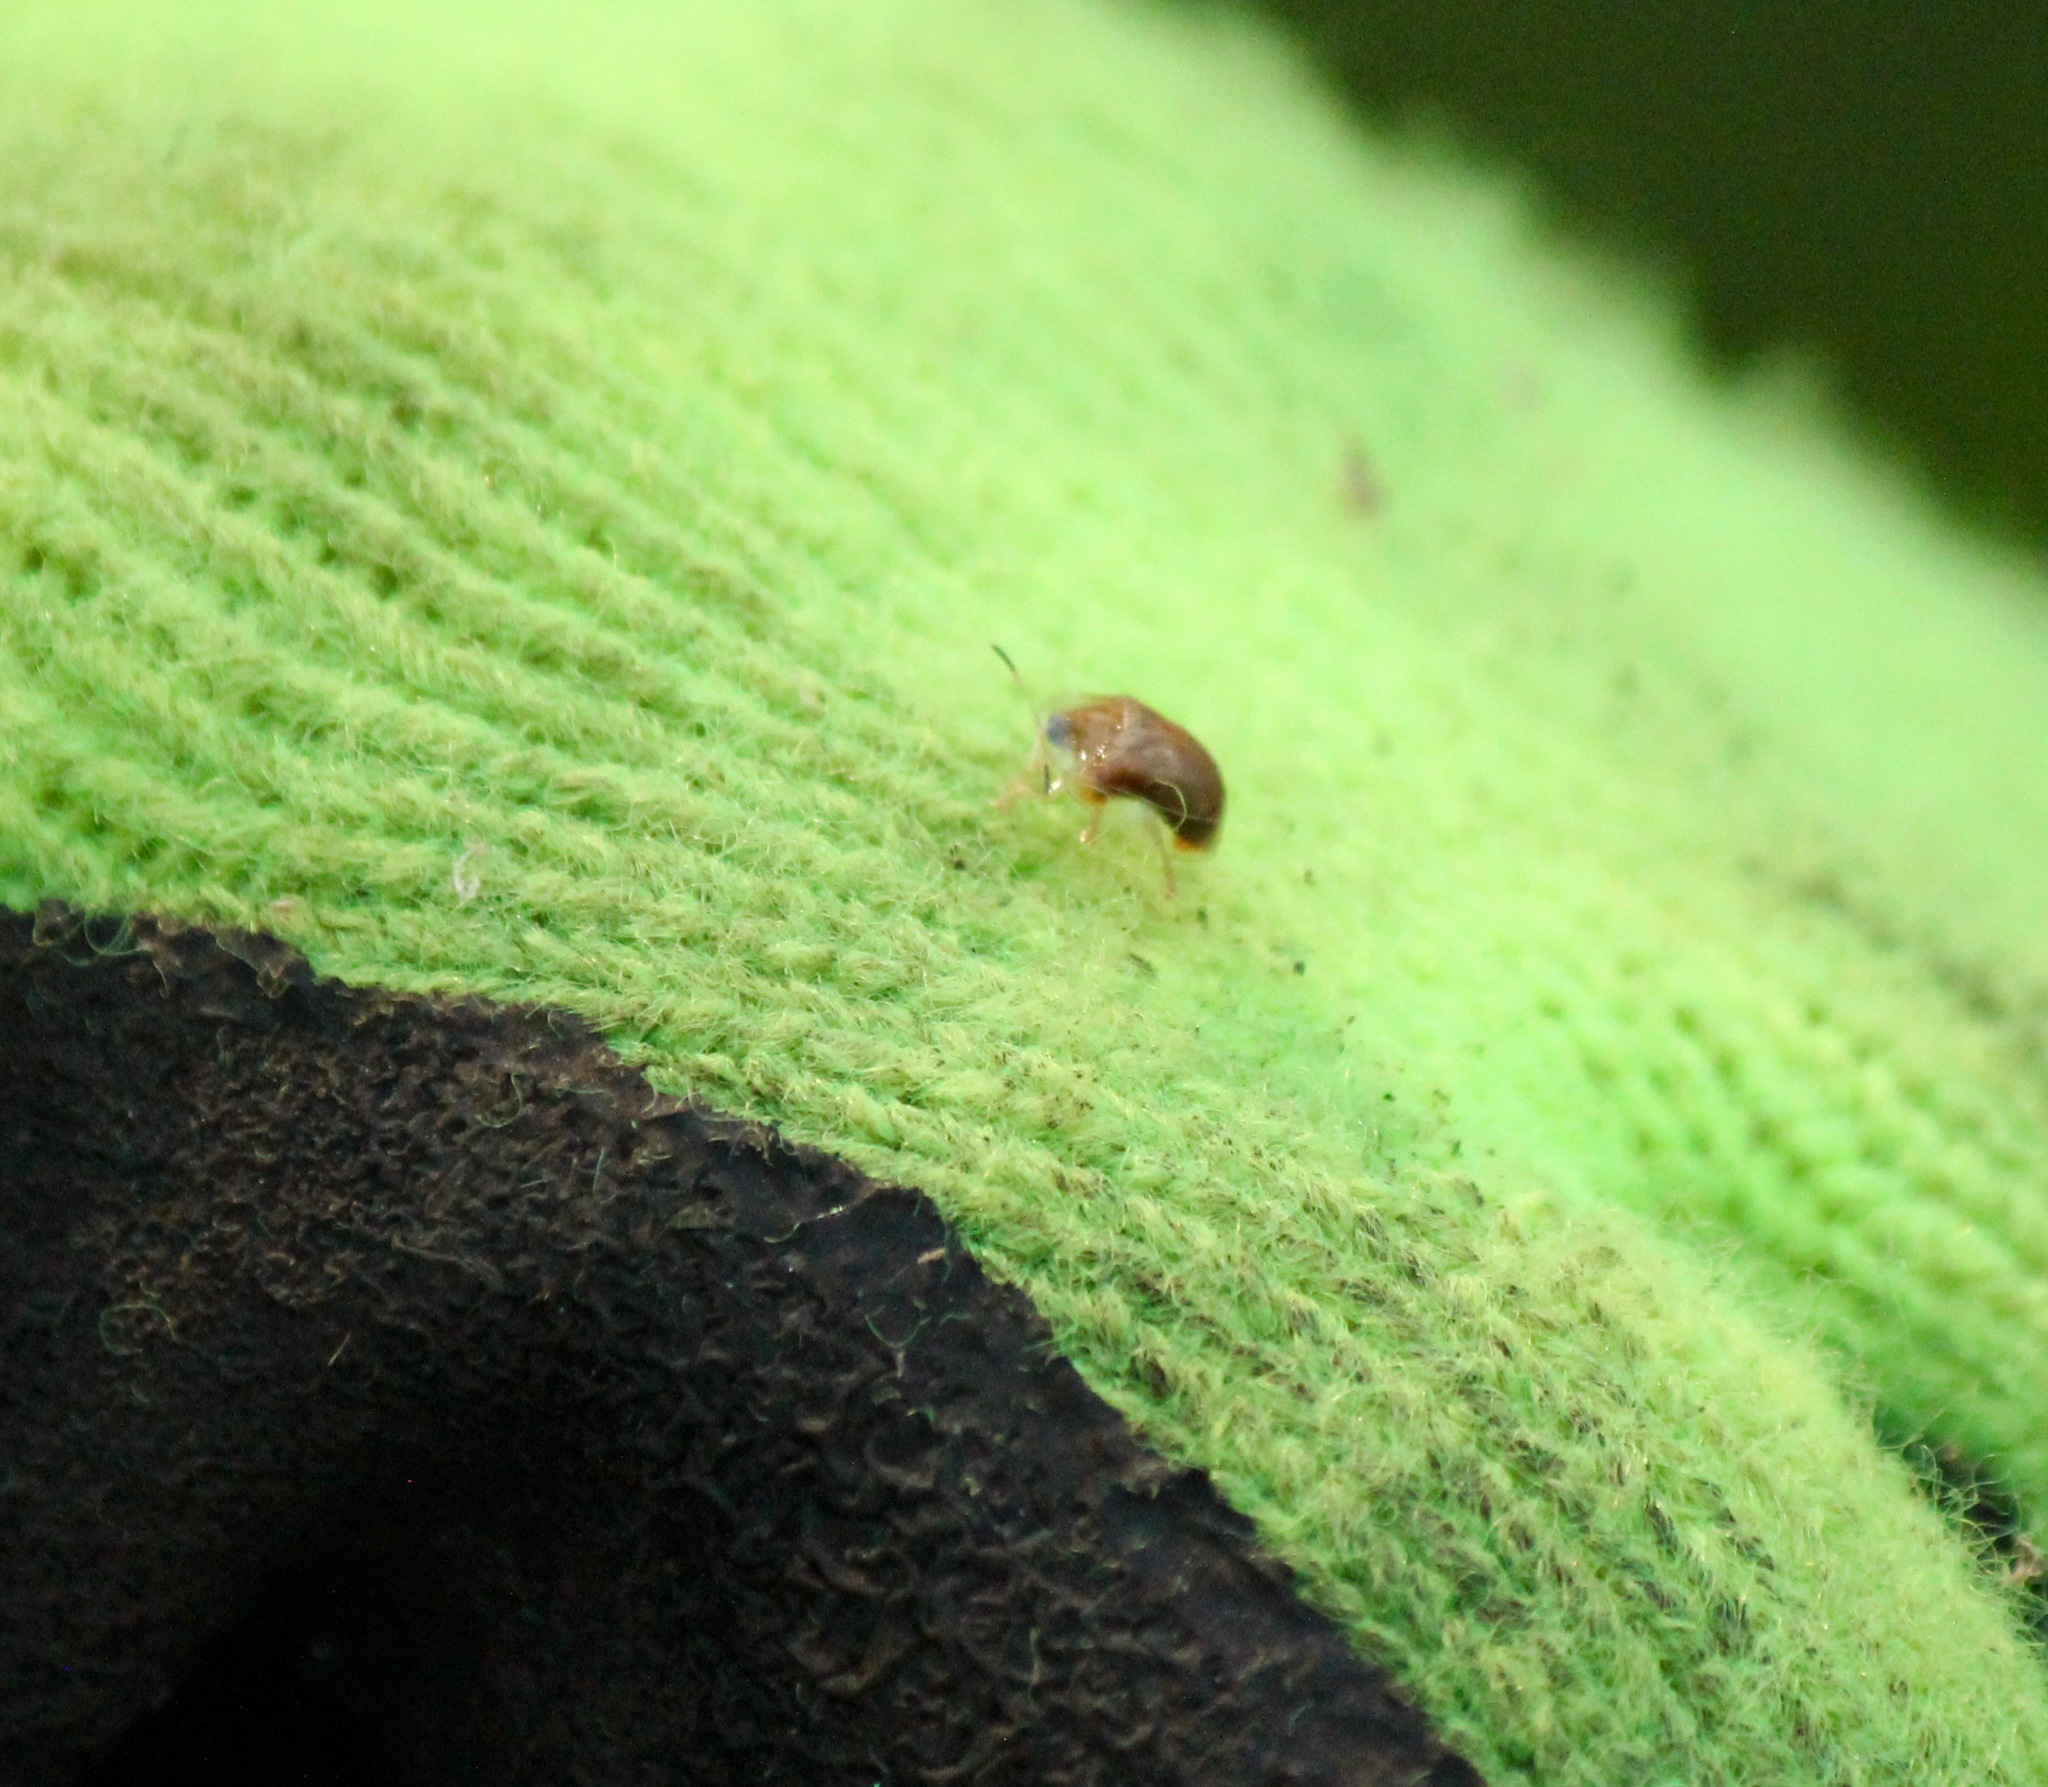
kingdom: Animalia
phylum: Arthropoda
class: Insecta
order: Coleoptera
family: Chrysomelidae
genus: Charidotella
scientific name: Charidotella purpurata
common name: Small orange tortoise beetle
